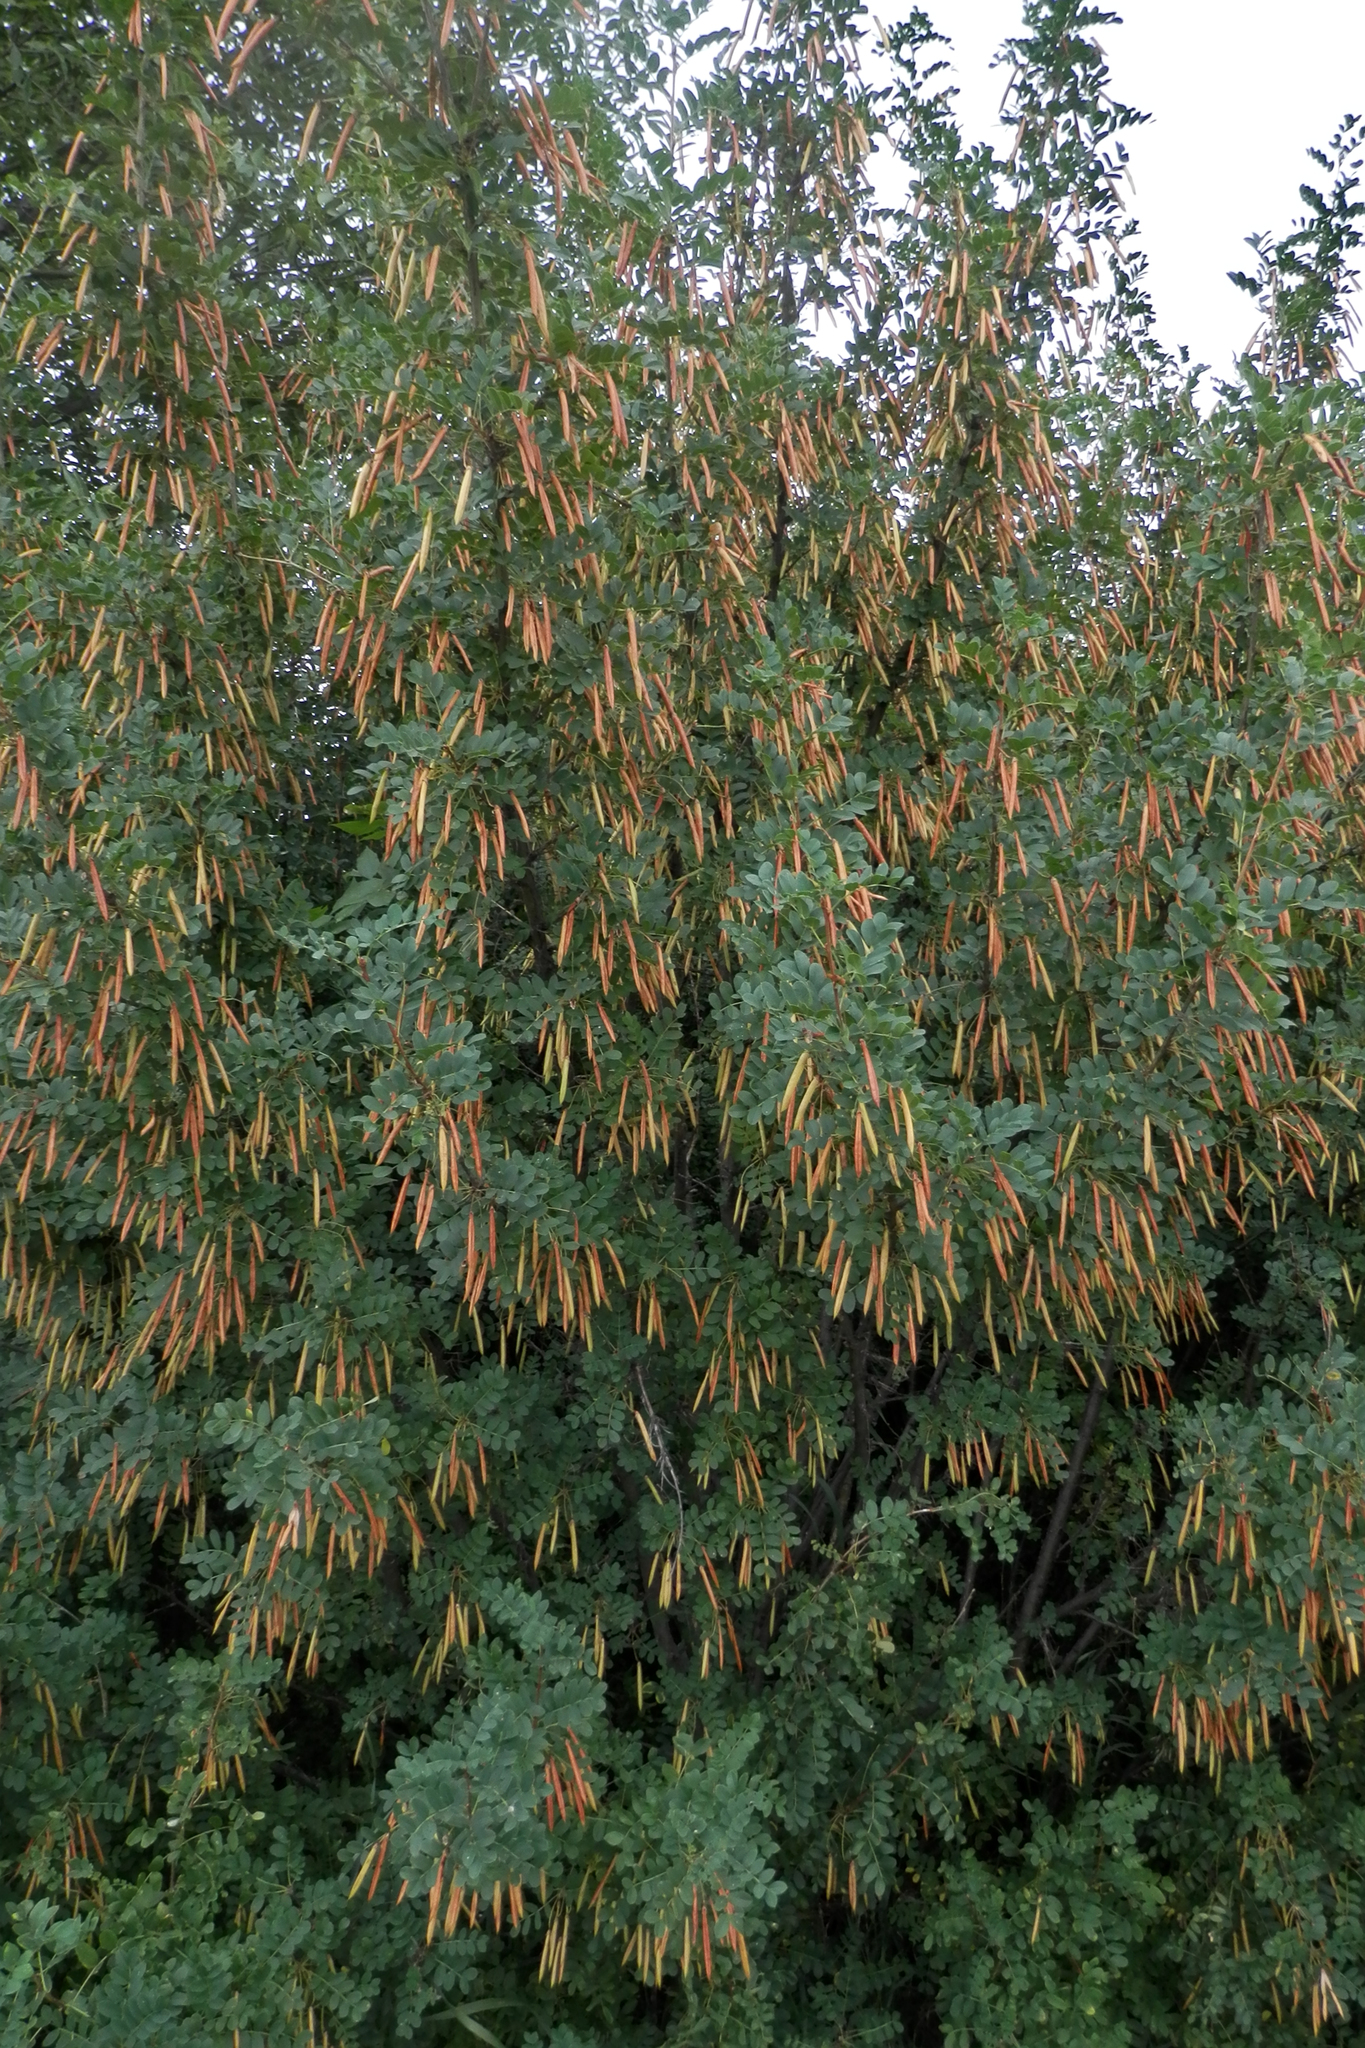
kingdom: Plantae
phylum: Tracheophyta
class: Magnoliopsida
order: Fabales
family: Fabaceae
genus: Caragana
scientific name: Caragana arborescens
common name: Siberian peashrub
